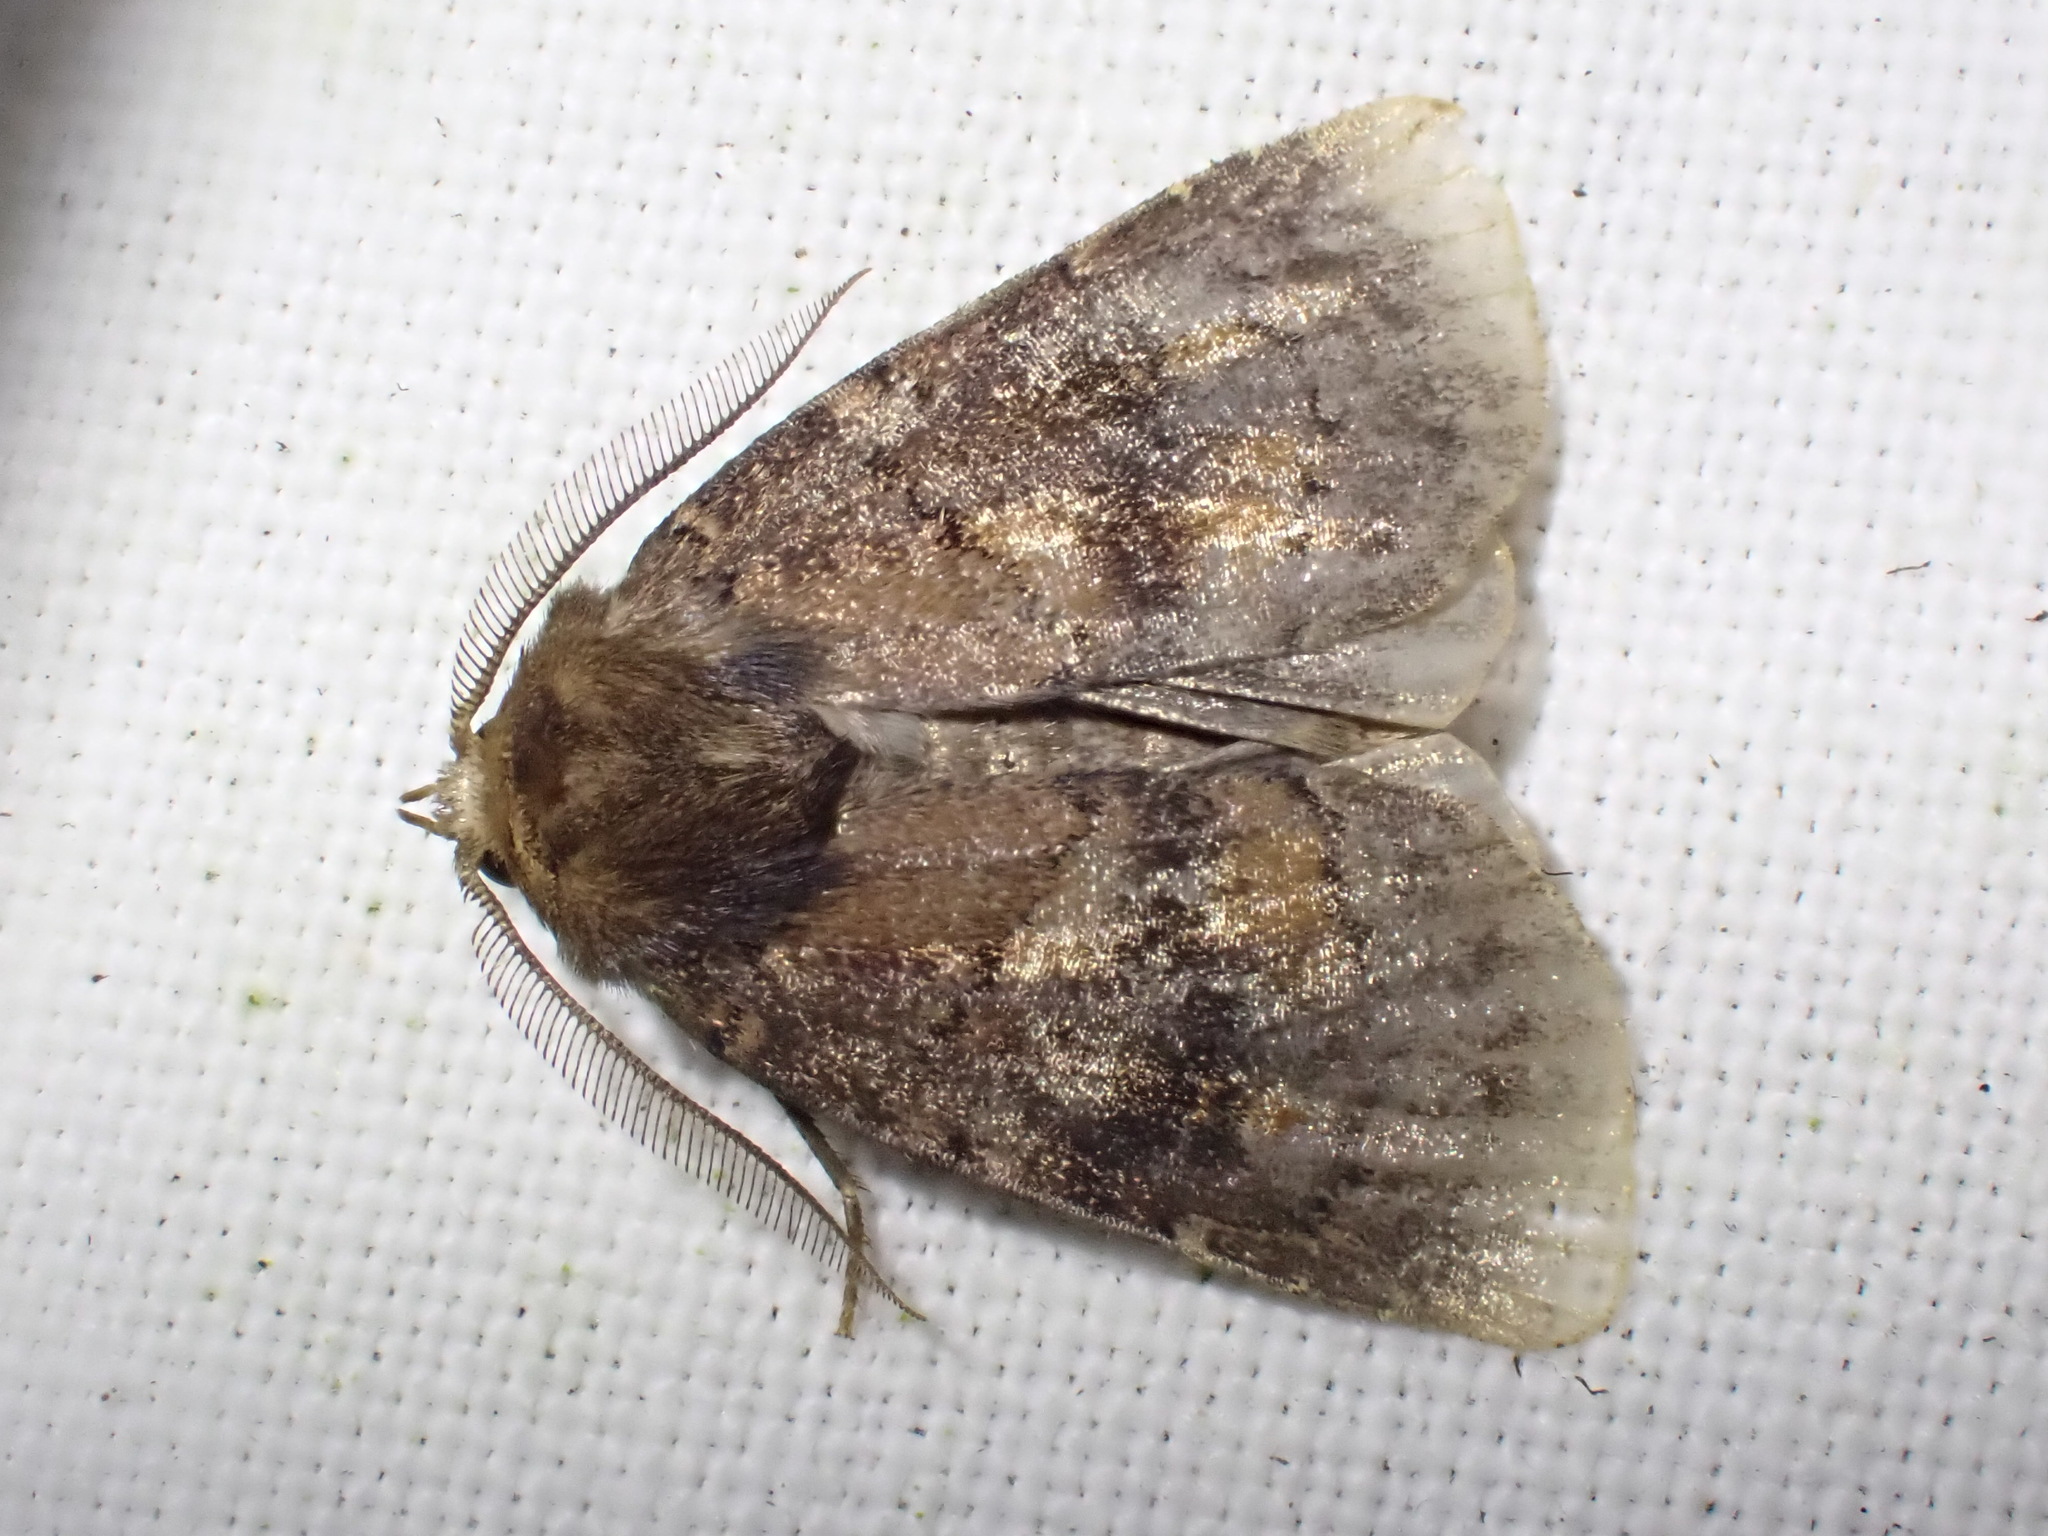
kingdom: Animalia
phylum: Arthropoda
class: Insecta
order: Lepidoptera
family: Noctuidae
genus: Charanyca
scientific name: Charanyca ferruginea
